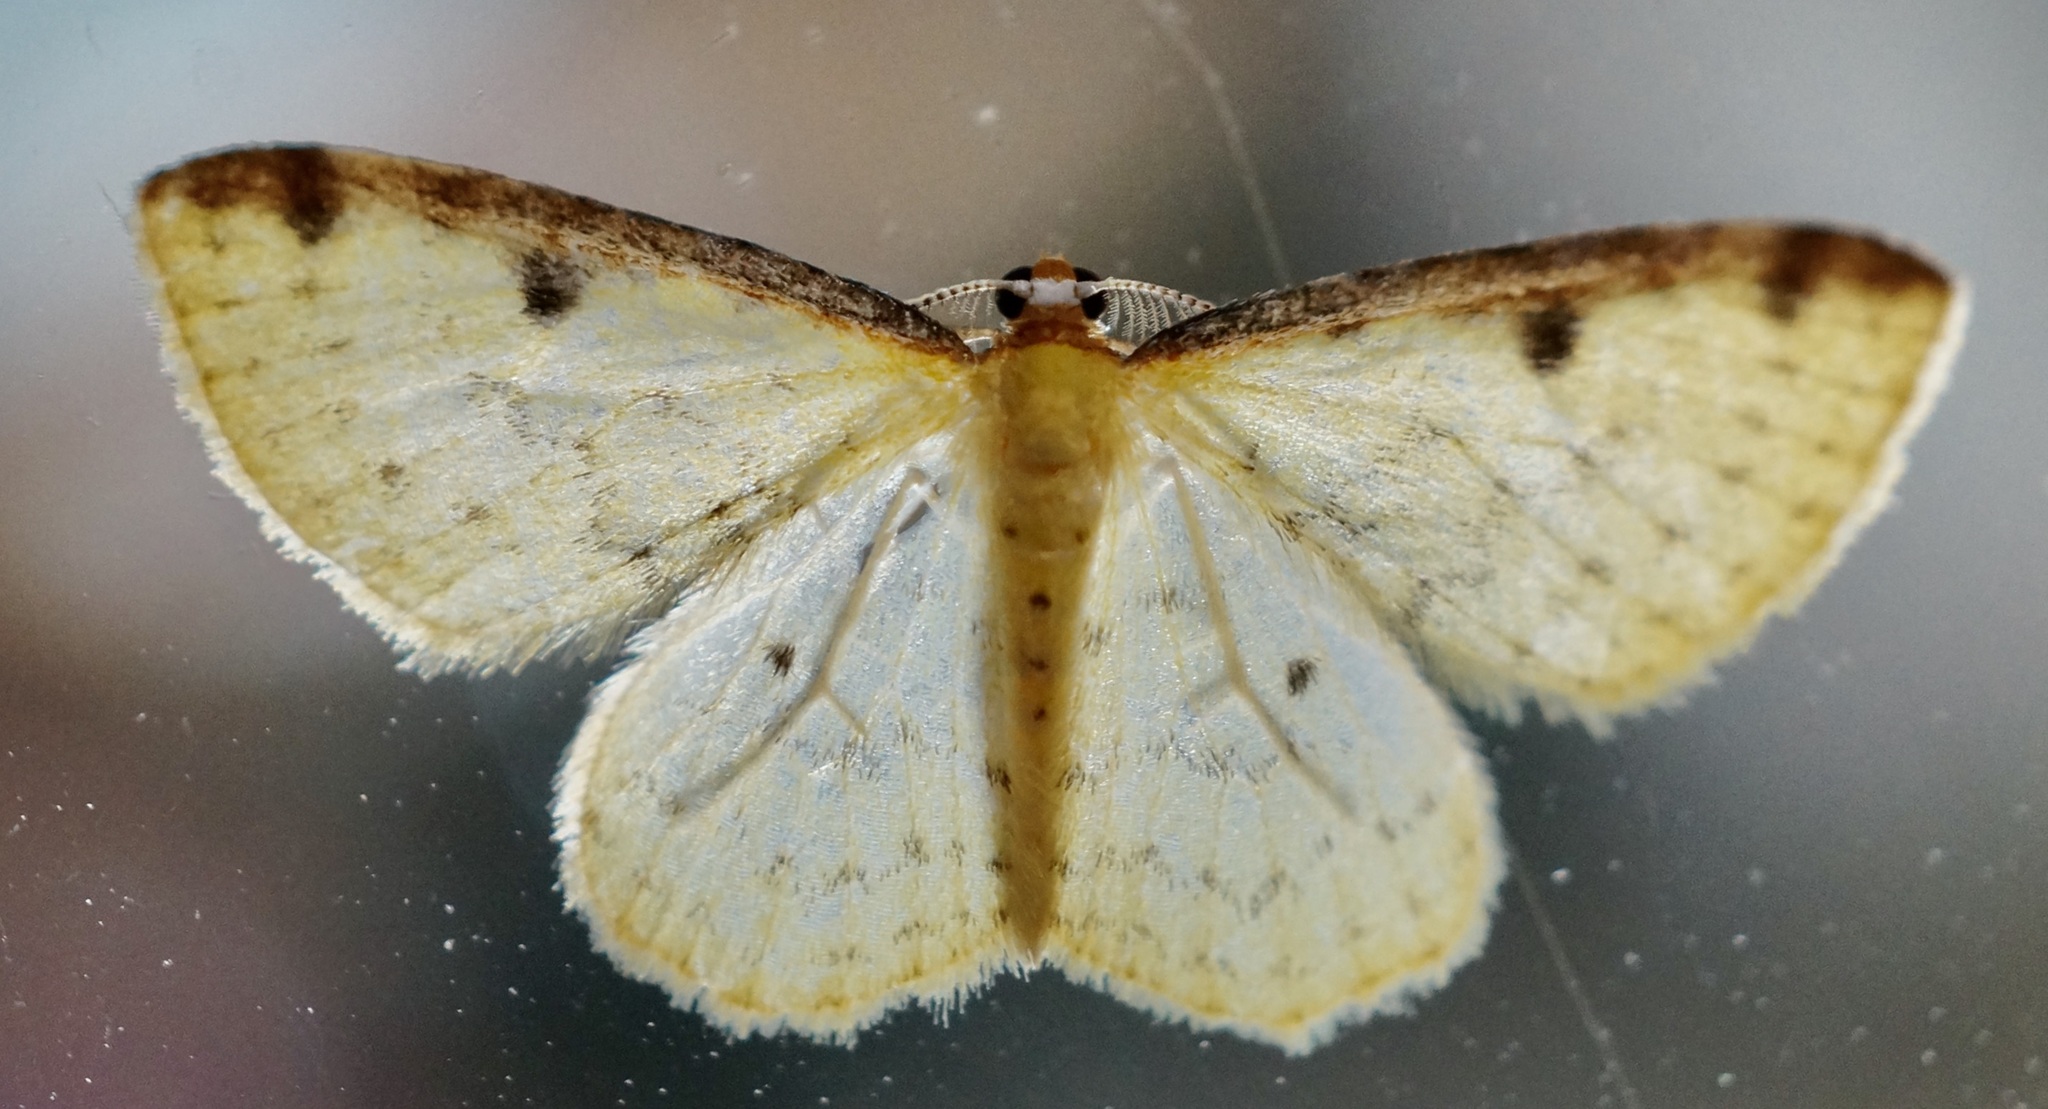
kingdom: Animalia
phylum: Arthropoda
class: Insecta
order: Lepidoptera
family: Geometridae
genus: Epiphryne
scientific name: Epiphryne undosata
